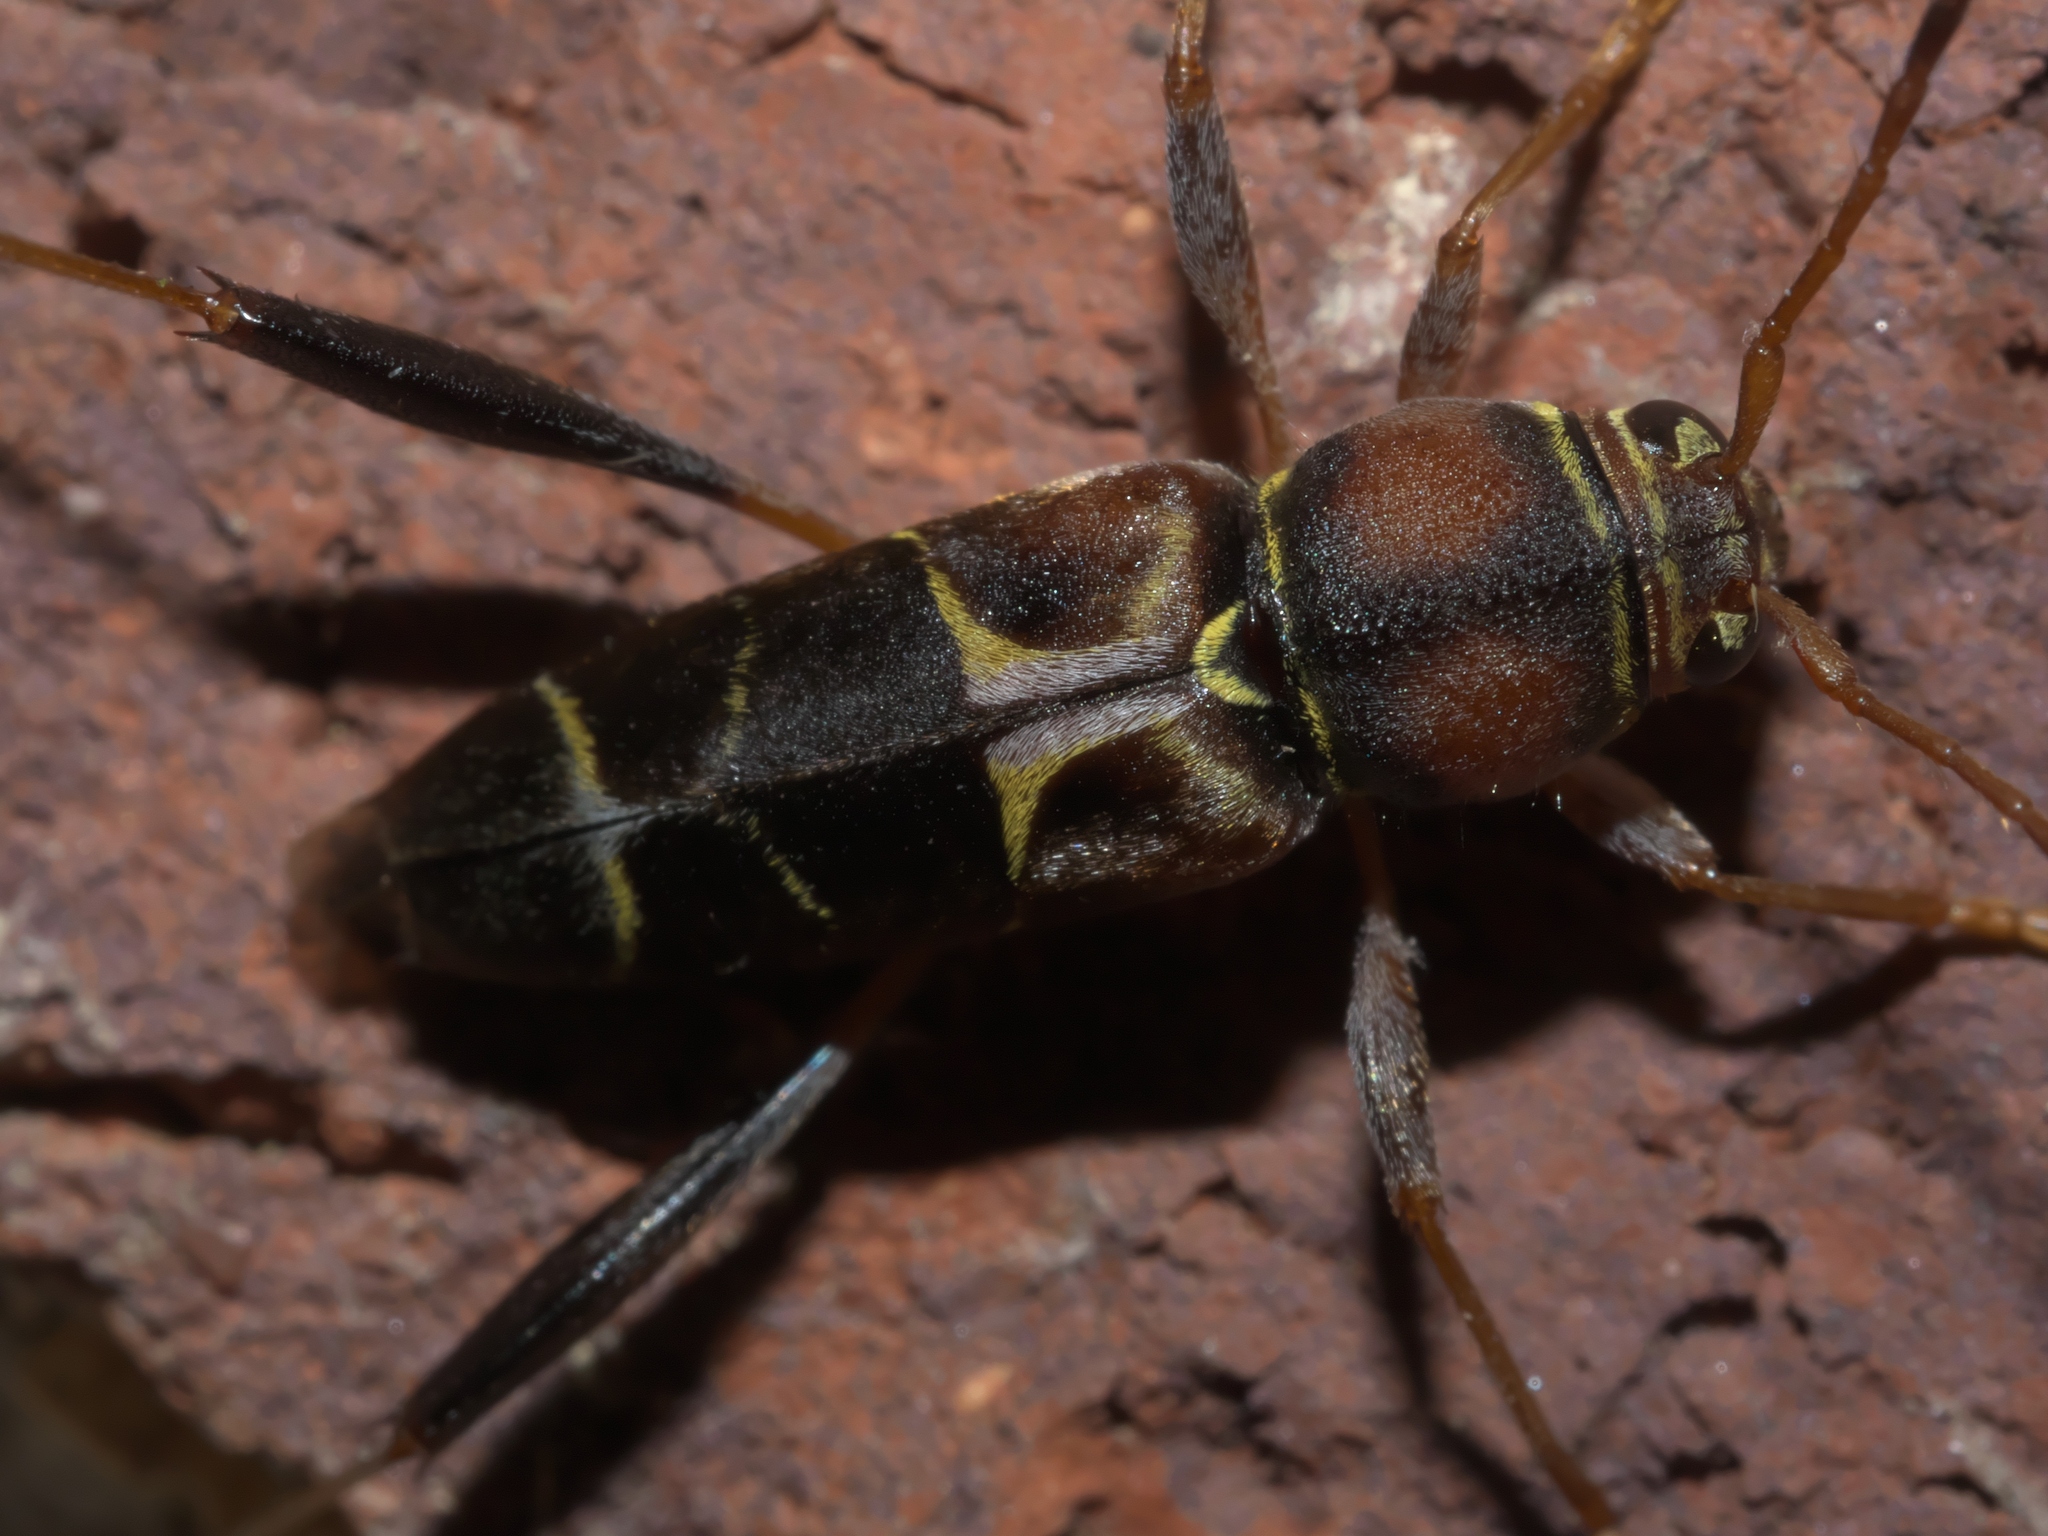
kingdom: Animalia
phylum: Arthropoda
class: Insecta
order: Coleoptera
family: Cerambycidae
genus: Neoclytus
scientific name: Neoclytus mucronatus
